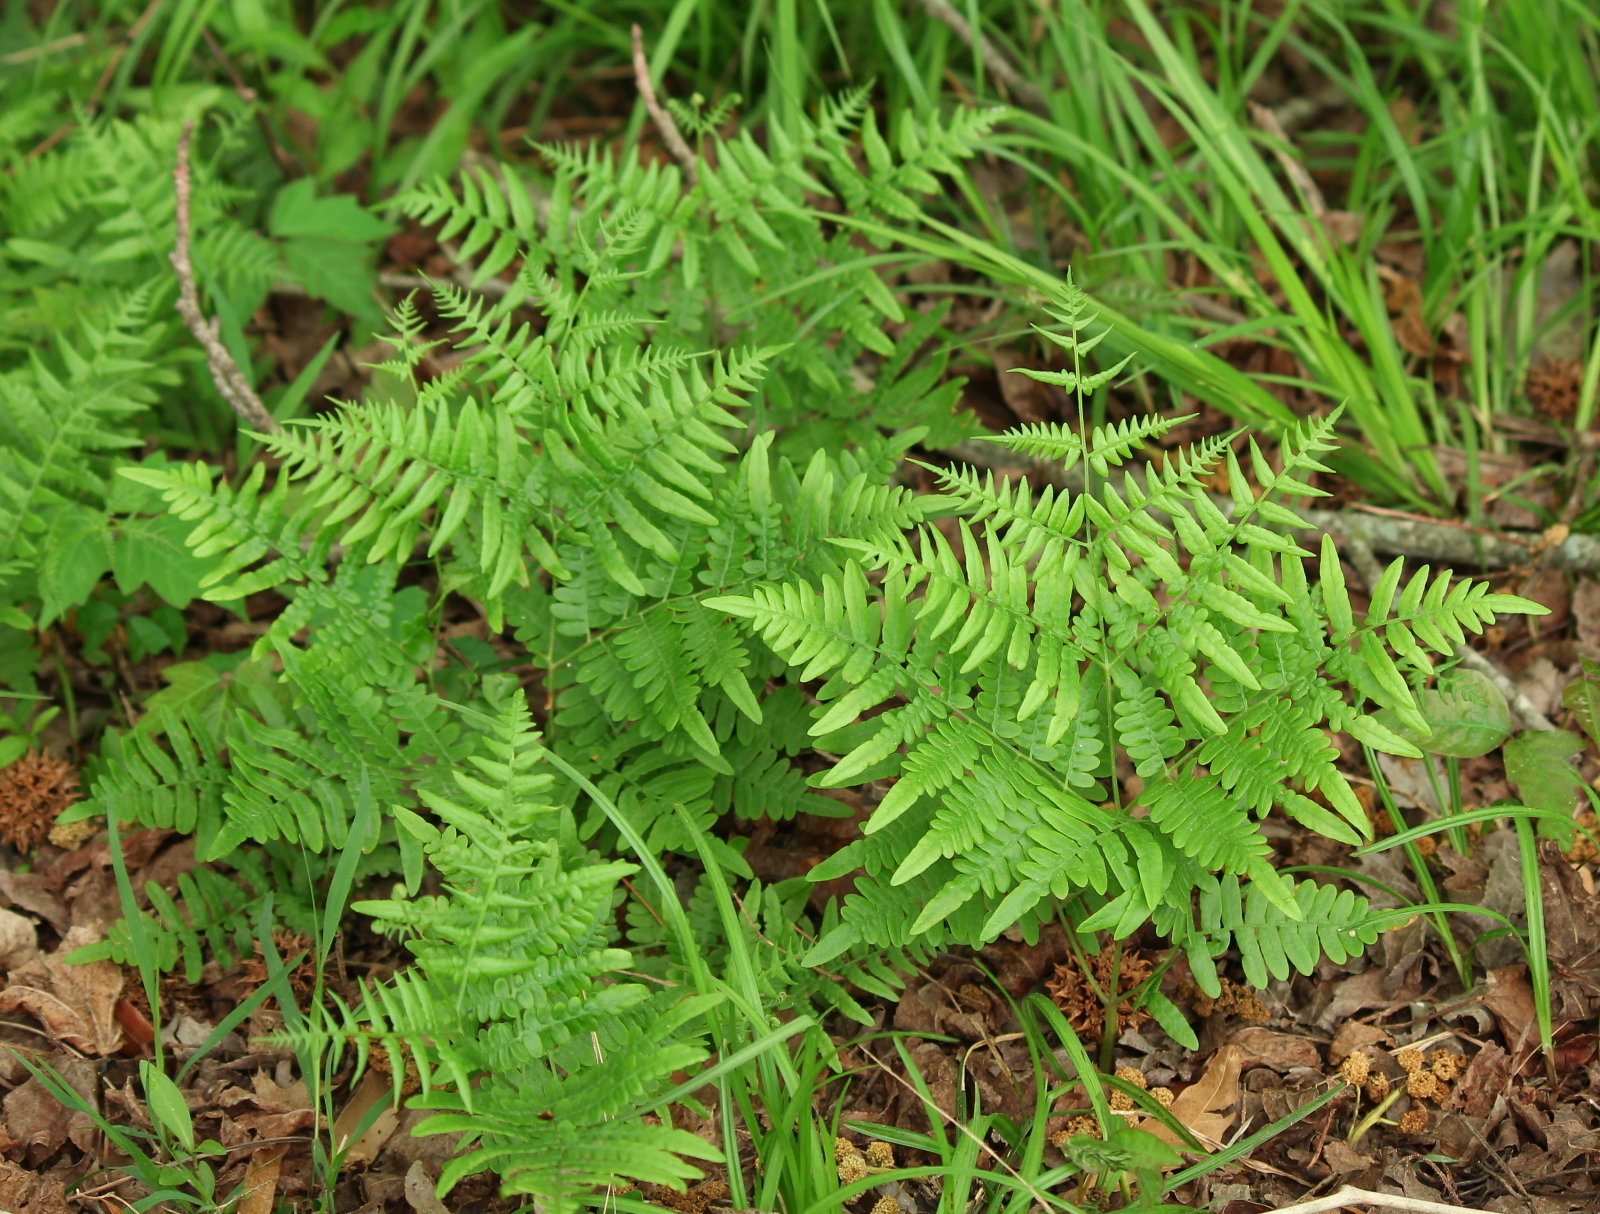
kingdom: Plantae
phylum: Tracheophyta
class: Polypodiopsida
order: Polypodiales
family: Athyriaceae
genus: Athyrium
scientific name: Athyrium asplenioides
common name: Southern lady fern
